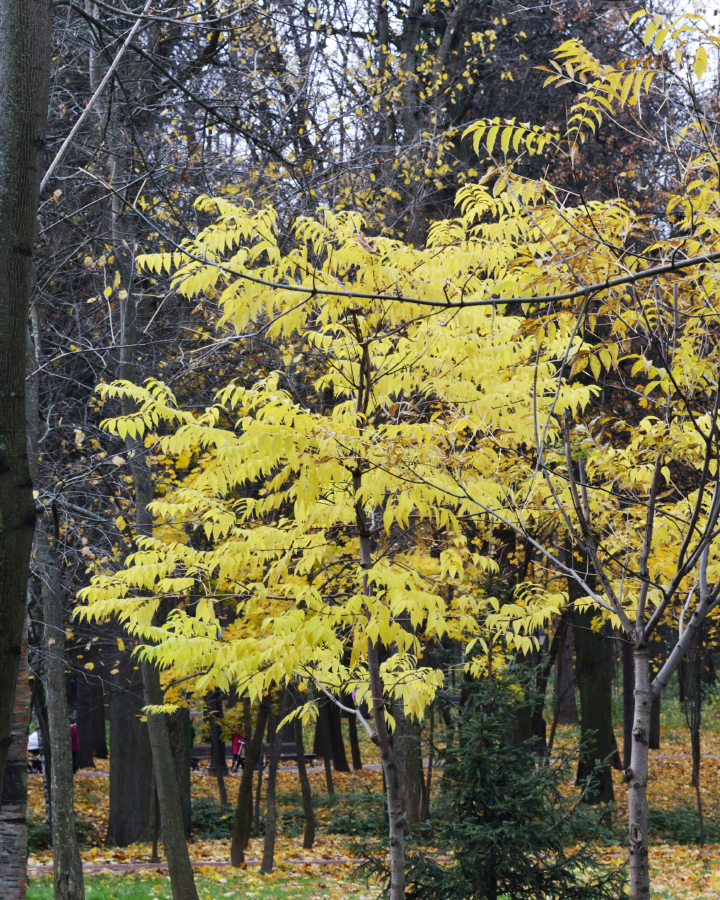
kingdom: Plantae
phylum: Tracheophyta
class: Magnoliopsida
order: Sapindales
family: Rutaceae
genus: Phellodendron
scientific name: Phellodendron amurense
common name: Amur corktree
